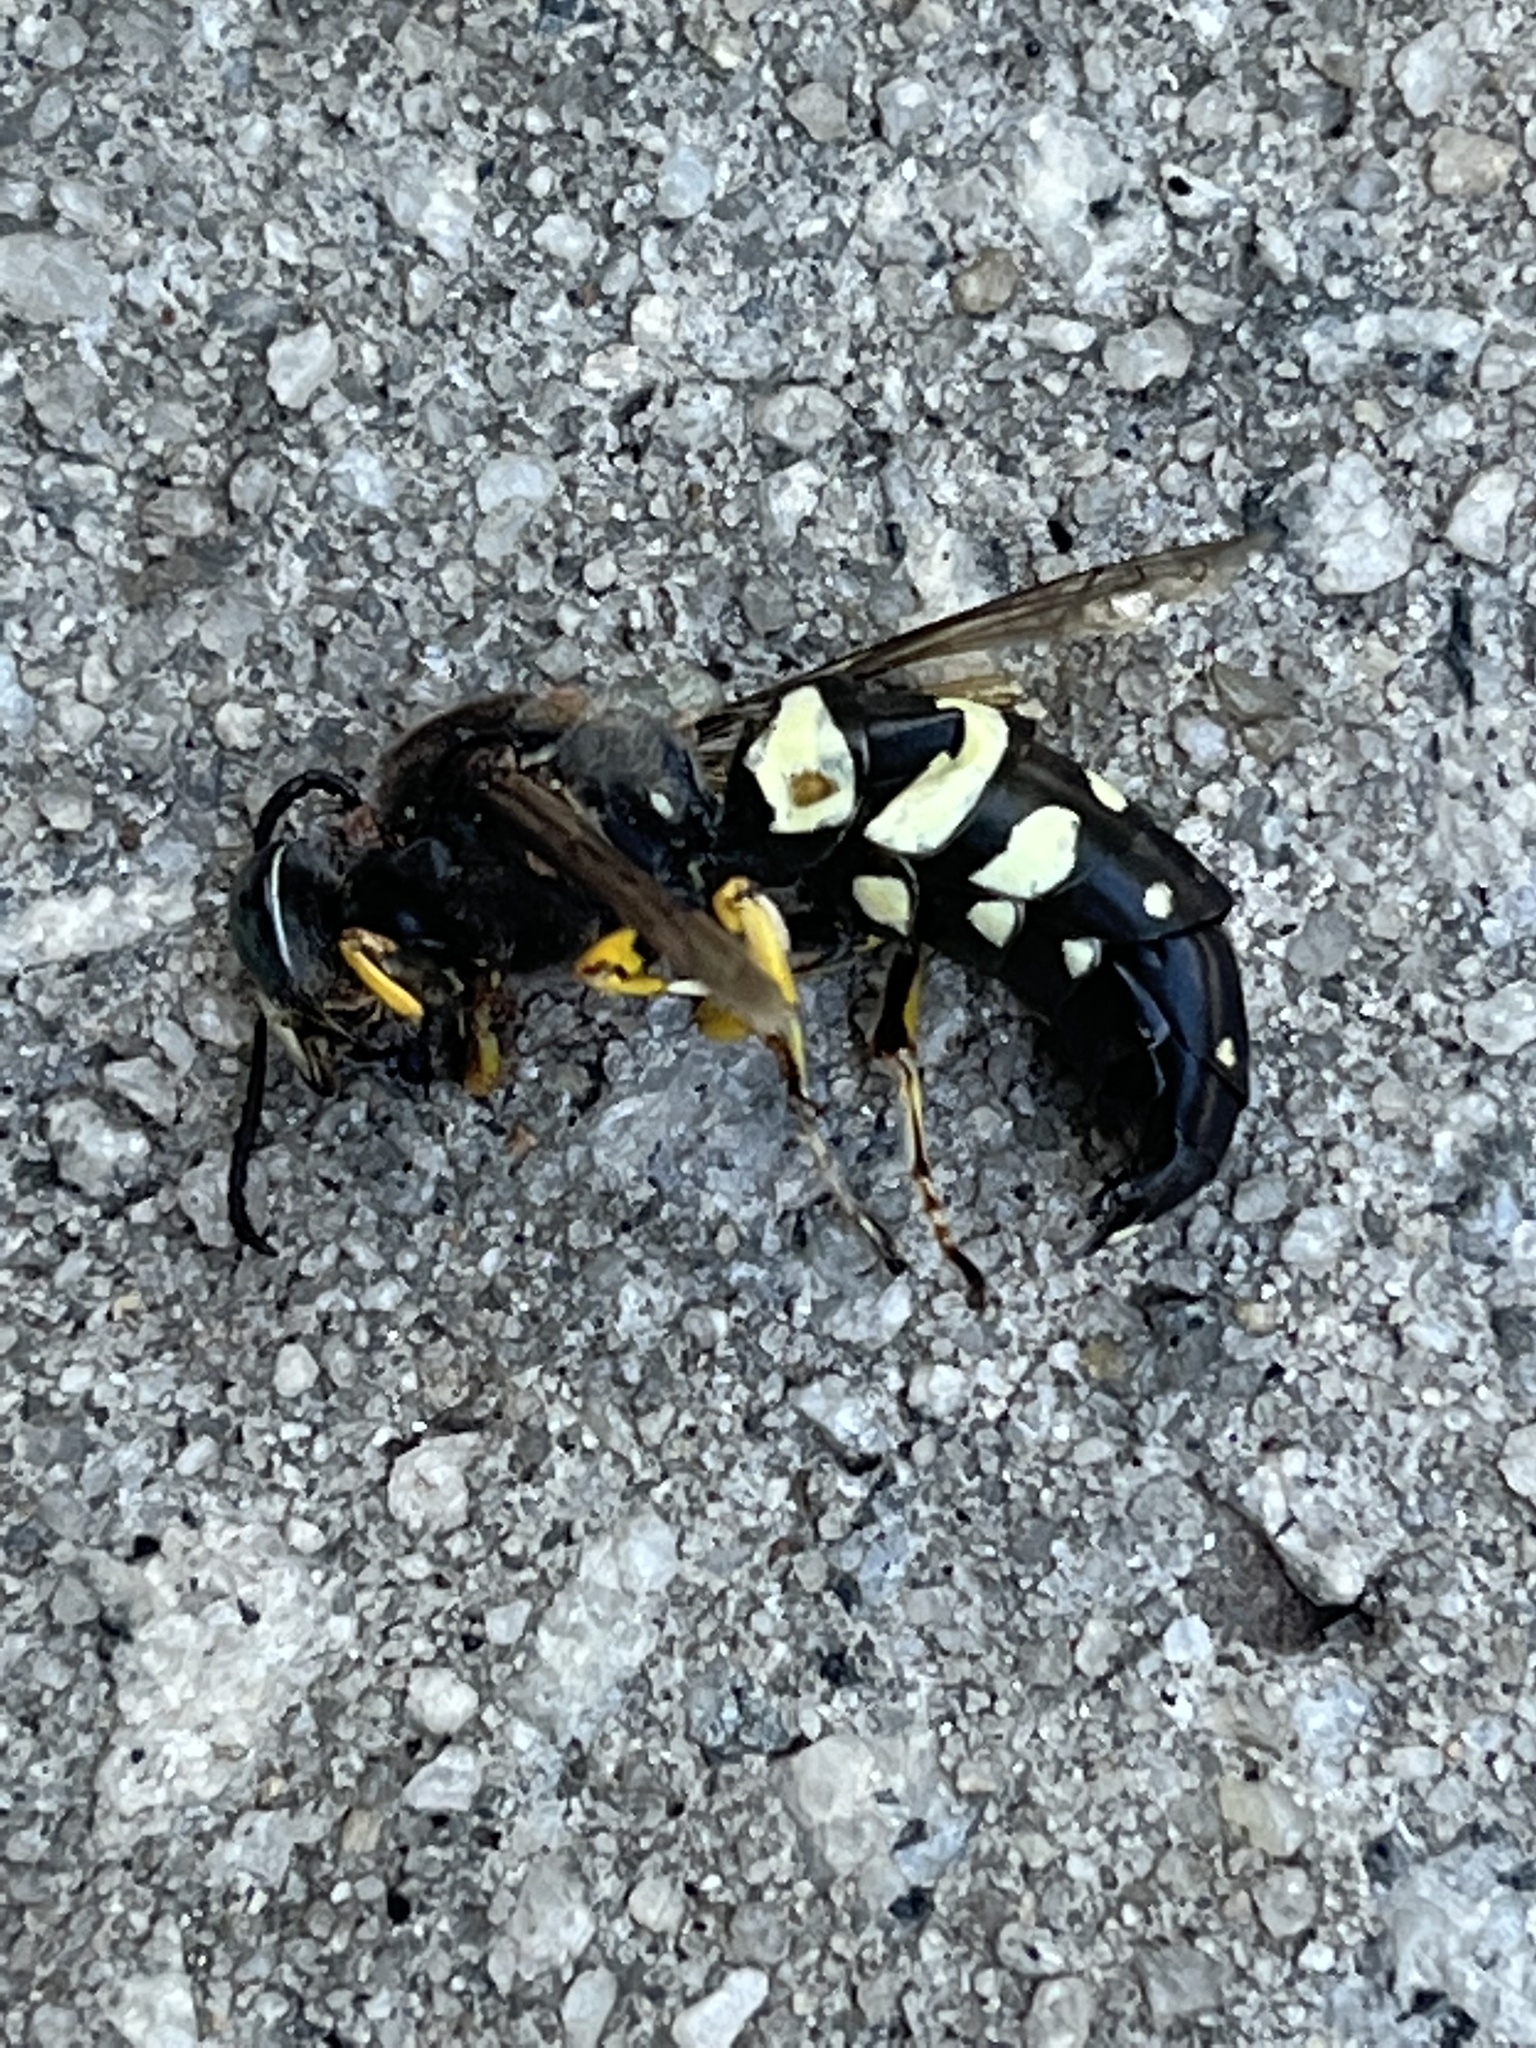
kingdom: Animalia
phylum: Arthropoda
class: Insecta
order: Hymenoptera
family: Crabronidae
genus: Stictia
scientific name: Stictia carolina
